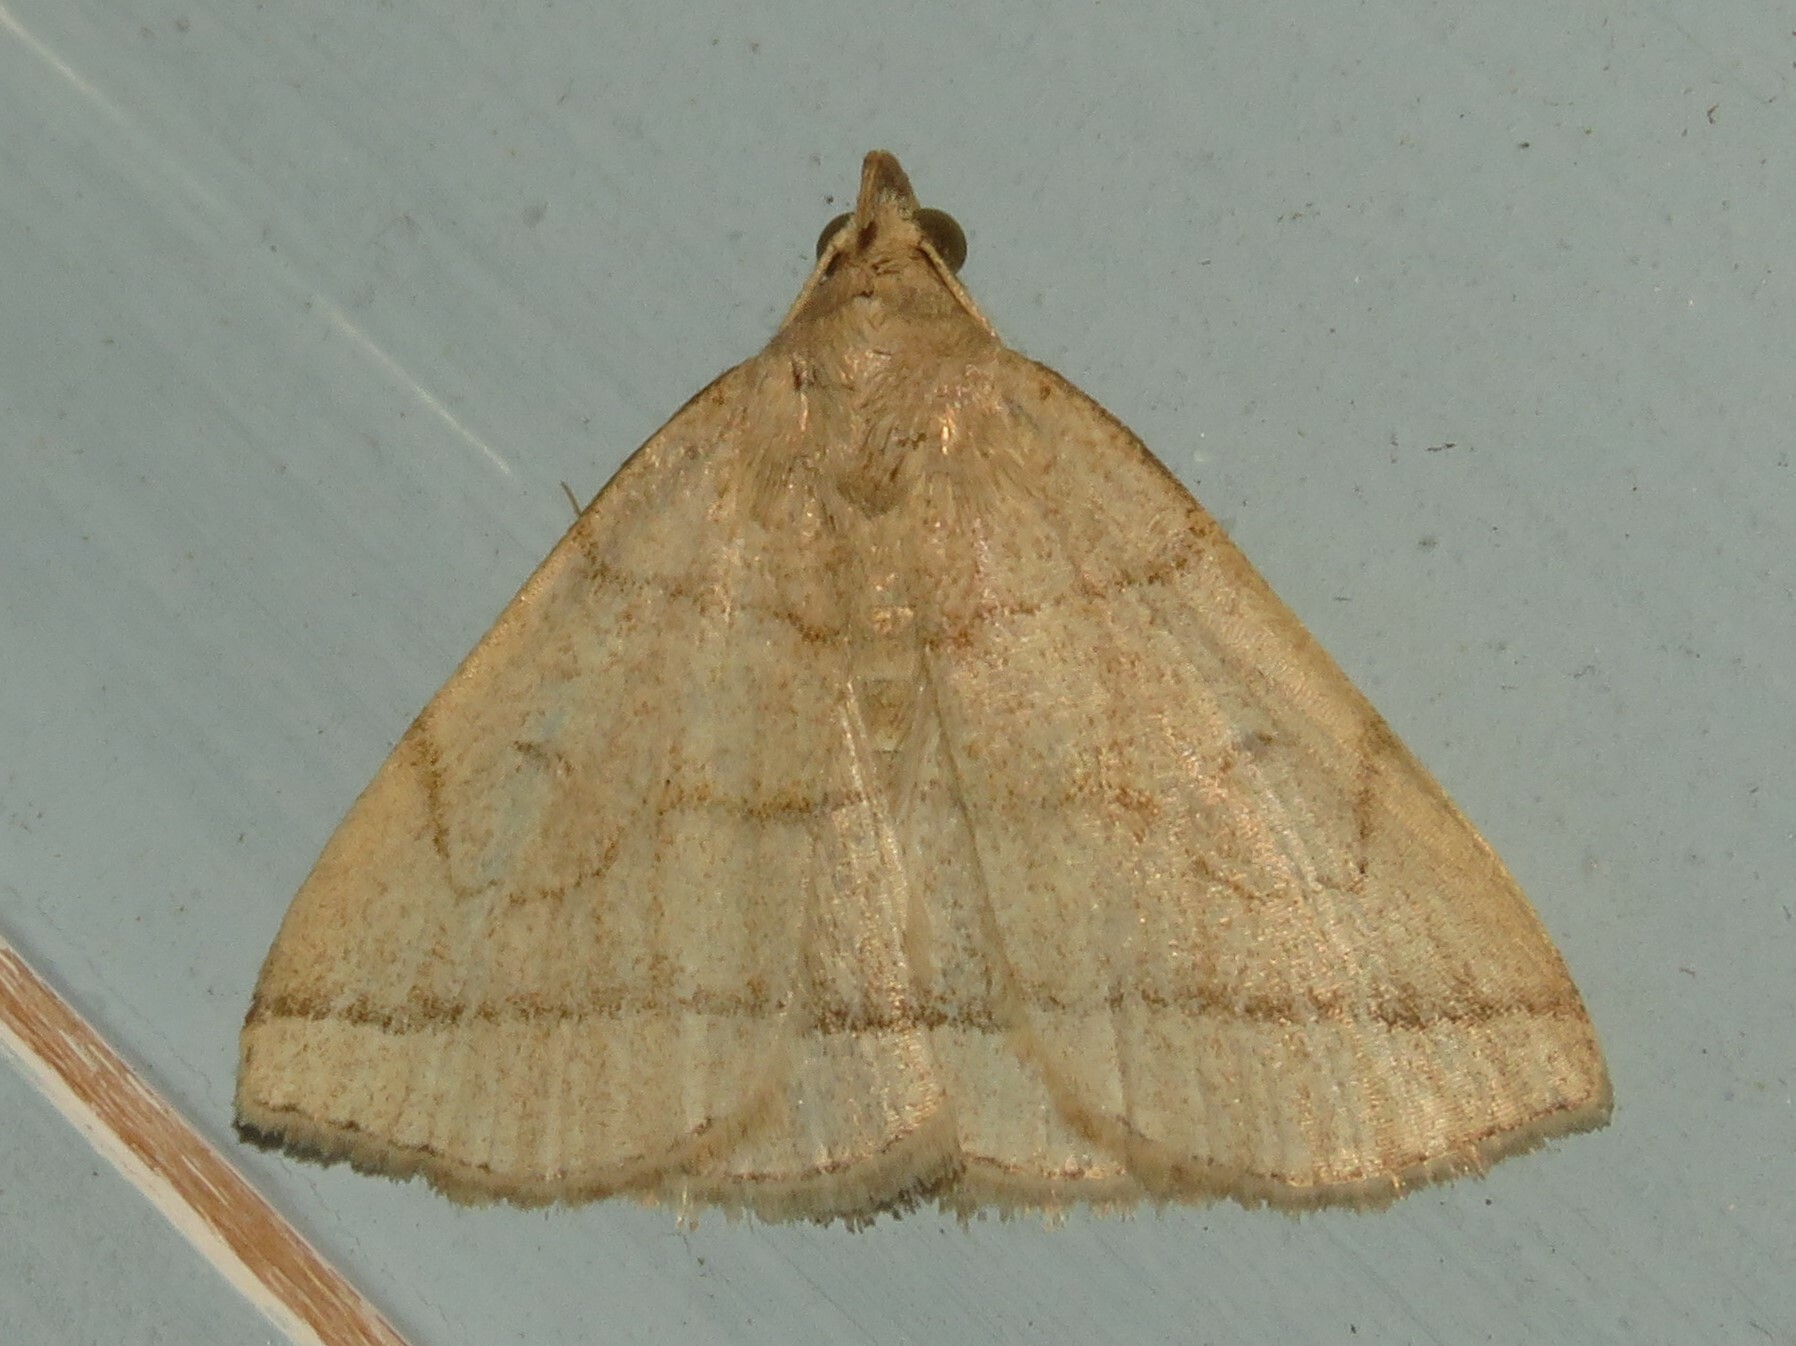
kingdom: Animalia
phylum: Arthropoda
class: Insecta
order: Lepidoptera
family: Erebidae
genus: Zanclognatha
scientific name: Zanclognatha cruralis
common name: Early fan-foot
